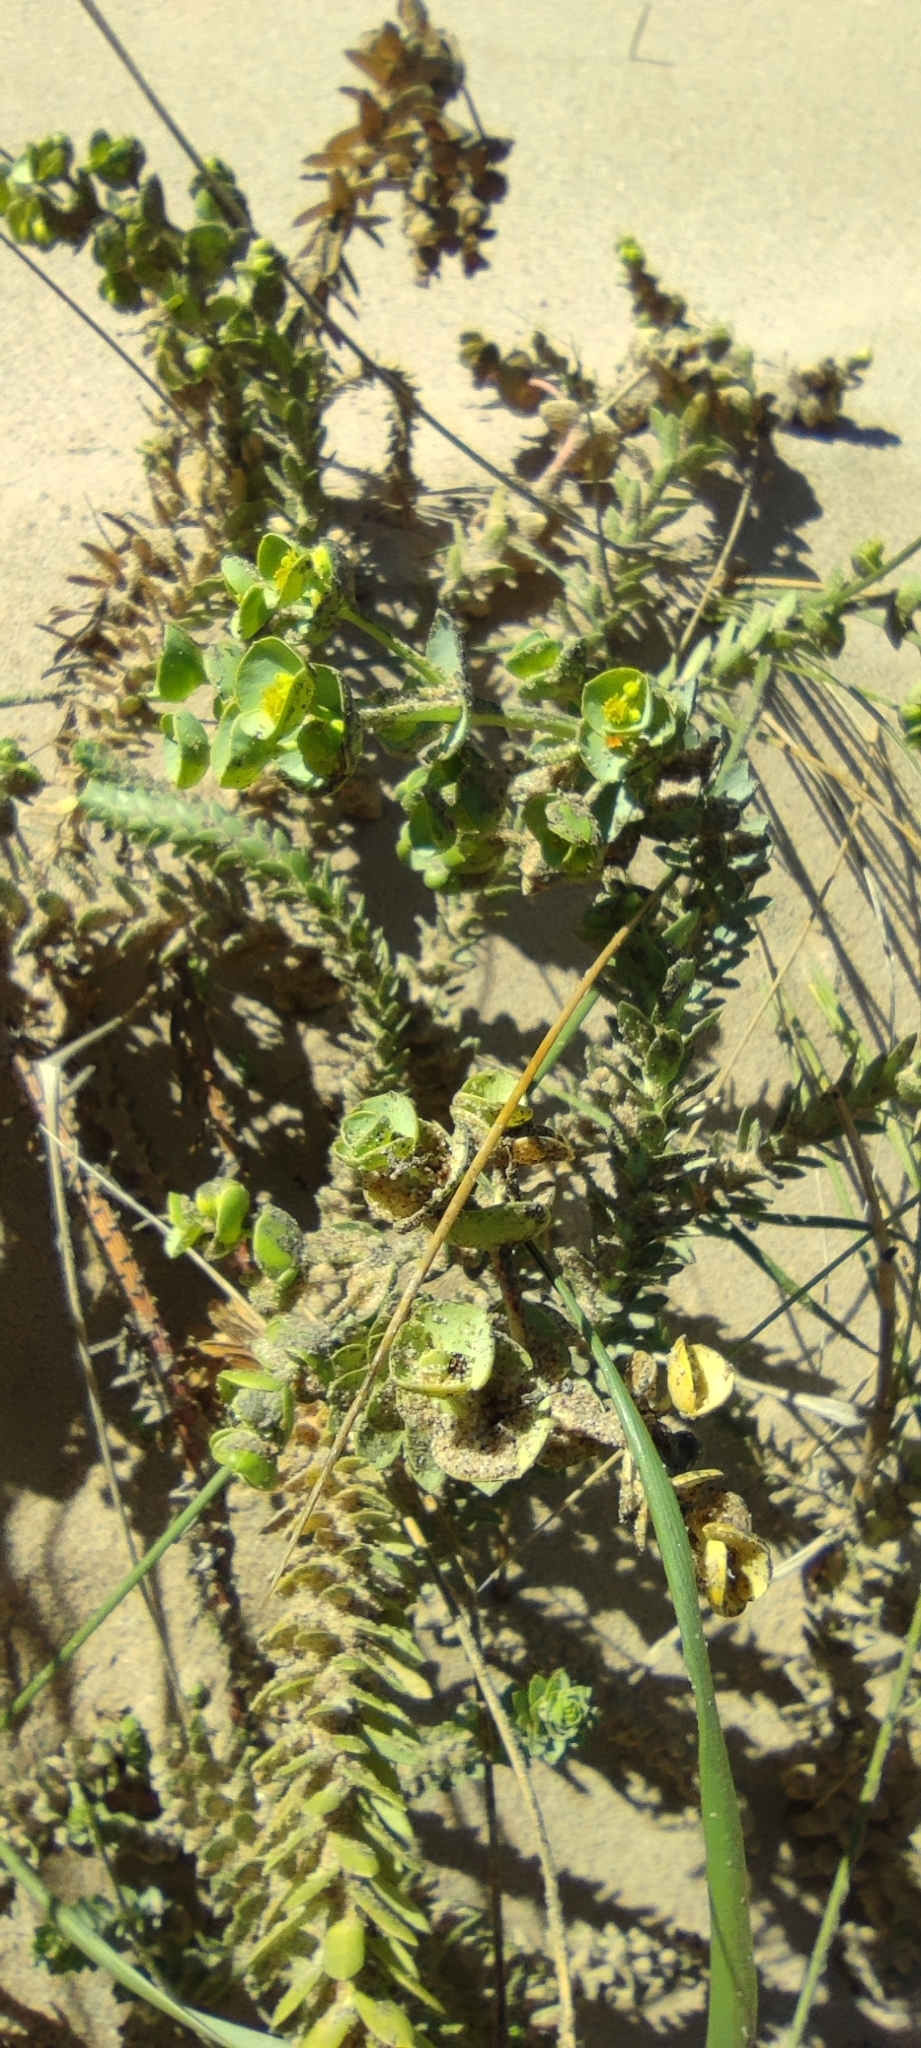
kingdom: Plantae
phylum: Tracheophyta
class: Magnoliopsida
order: Malpighiales
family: Euphorbiaceae
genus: Euphorbia
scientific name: Euphorbia paralias
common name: Sea spurge
